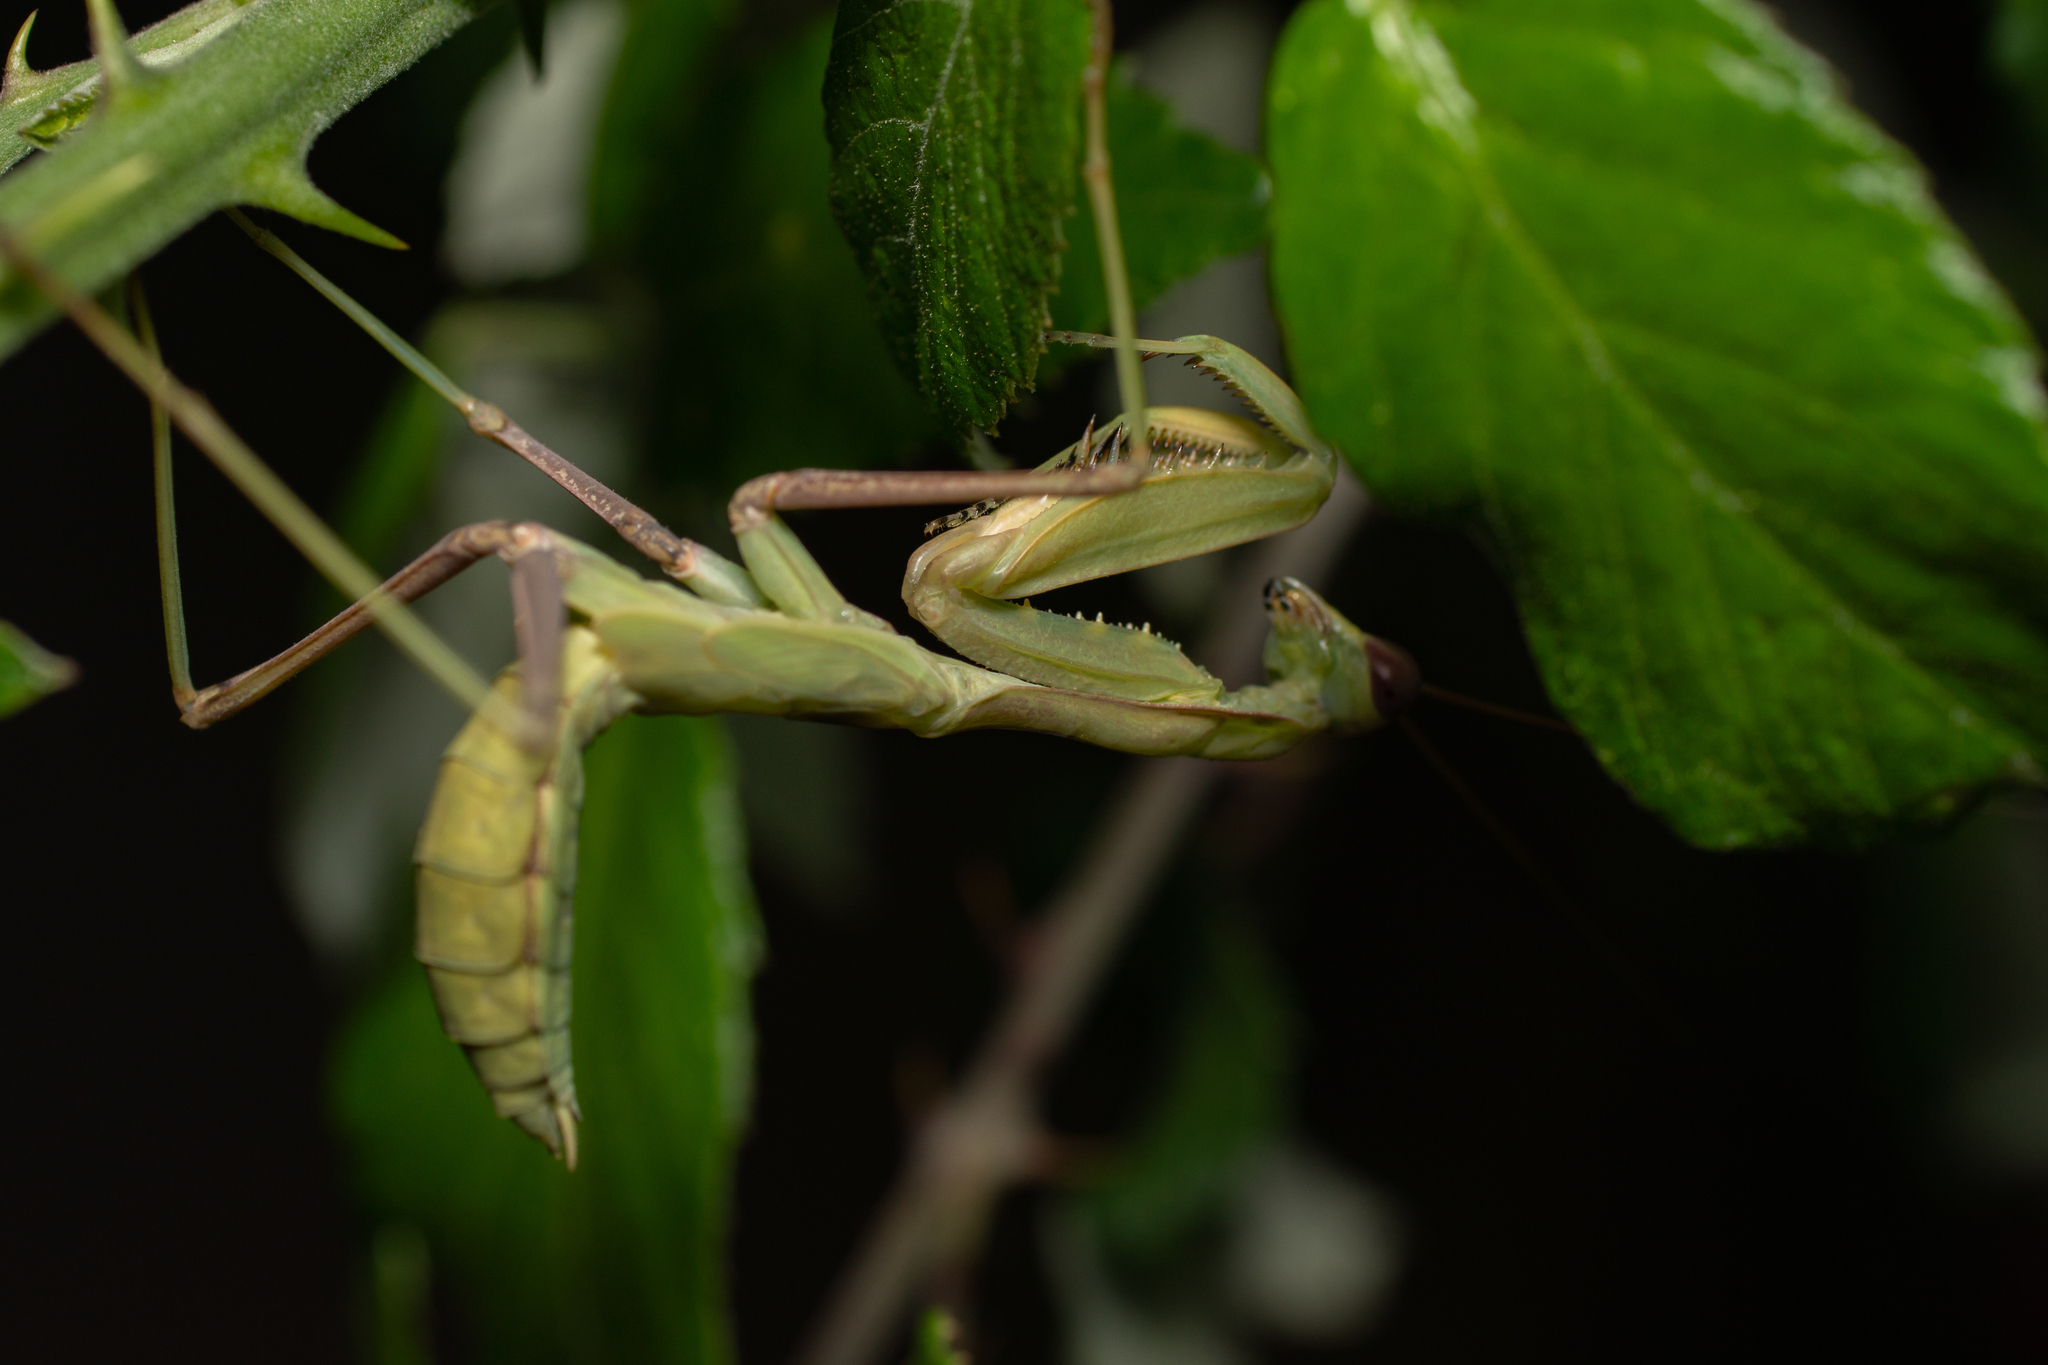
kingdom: Animalia
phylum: Arthropoda
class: Insecta
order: Mantodea
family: Mantidae
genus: Sphodromantis
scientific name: Sphodromantis viridis
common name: Giant african mantis
